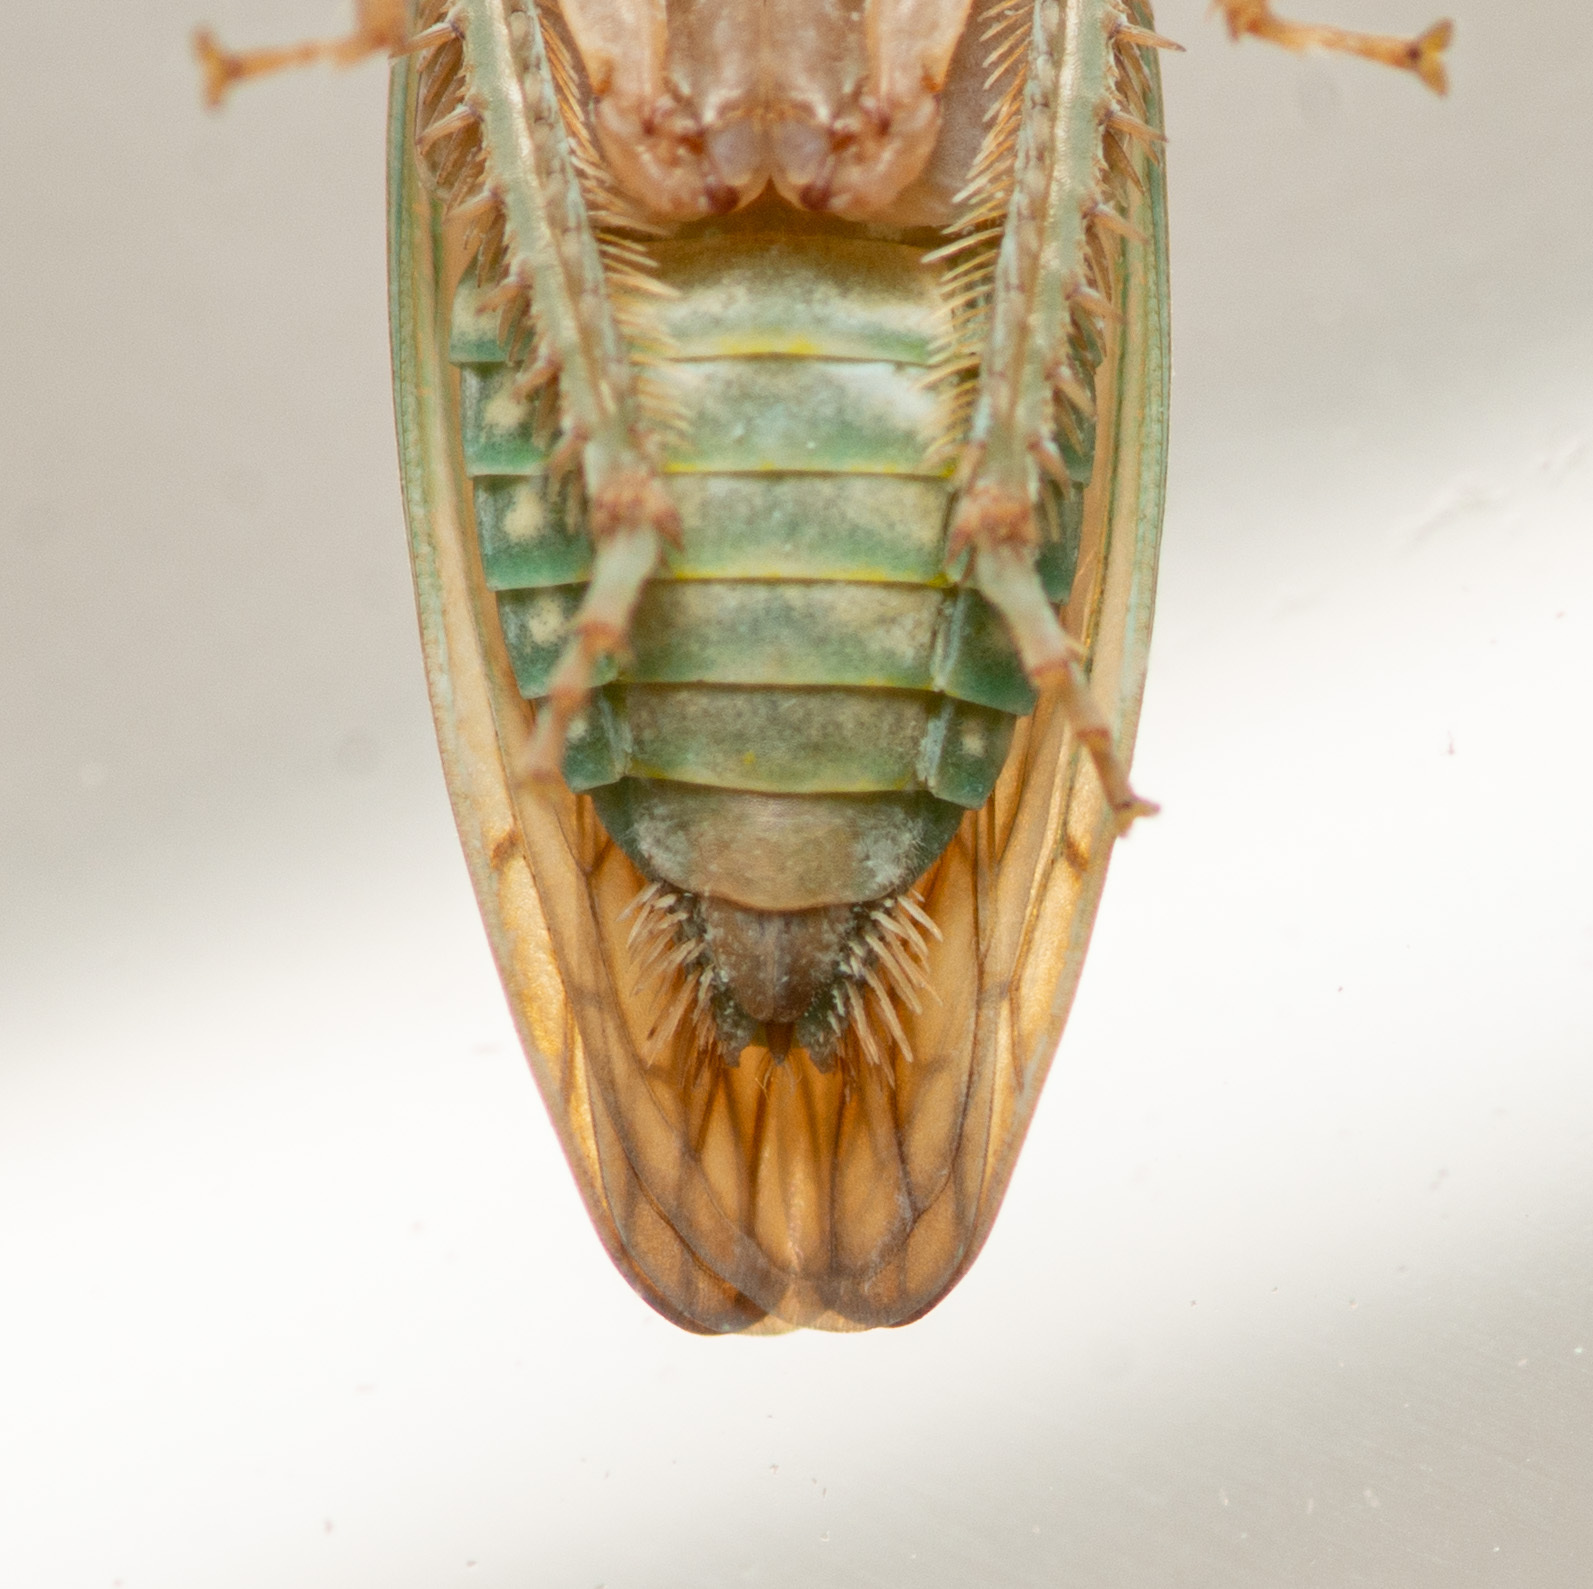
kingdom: Animalia
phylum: Arthropoda
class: Insecta
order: Hemiptera
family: Cicadellidae
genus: Polana
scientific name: Polana quadrinotata
